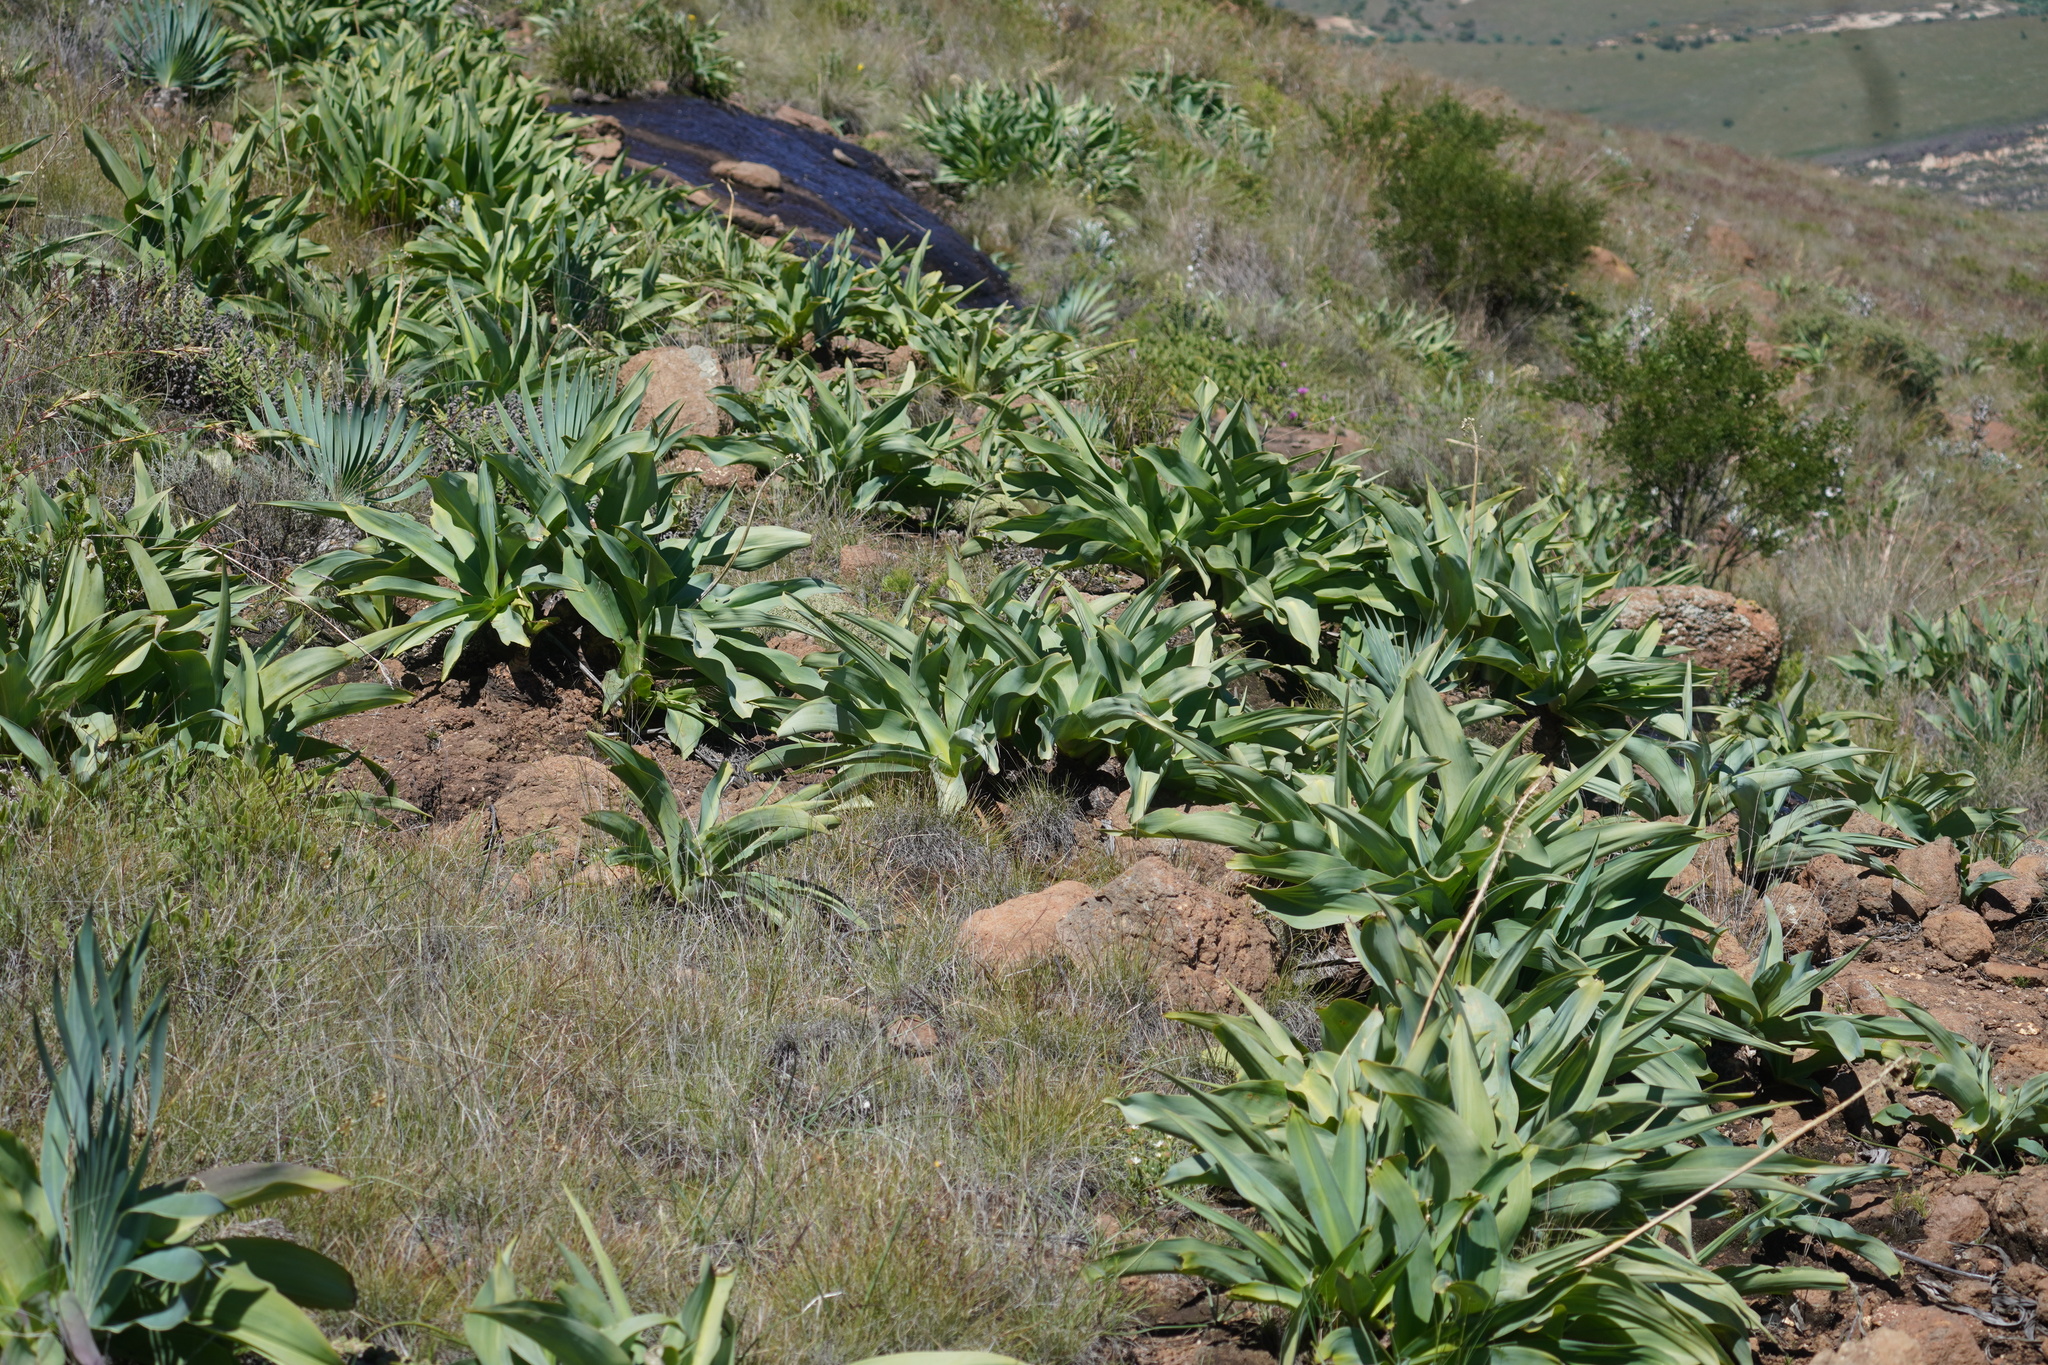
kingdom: Plantae
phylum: Tracheophyta
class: Liliopsida
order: Asparagales
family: Asparagaceae
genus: Merwilla
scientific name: Merwilla plumbea
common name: Blue-squill
